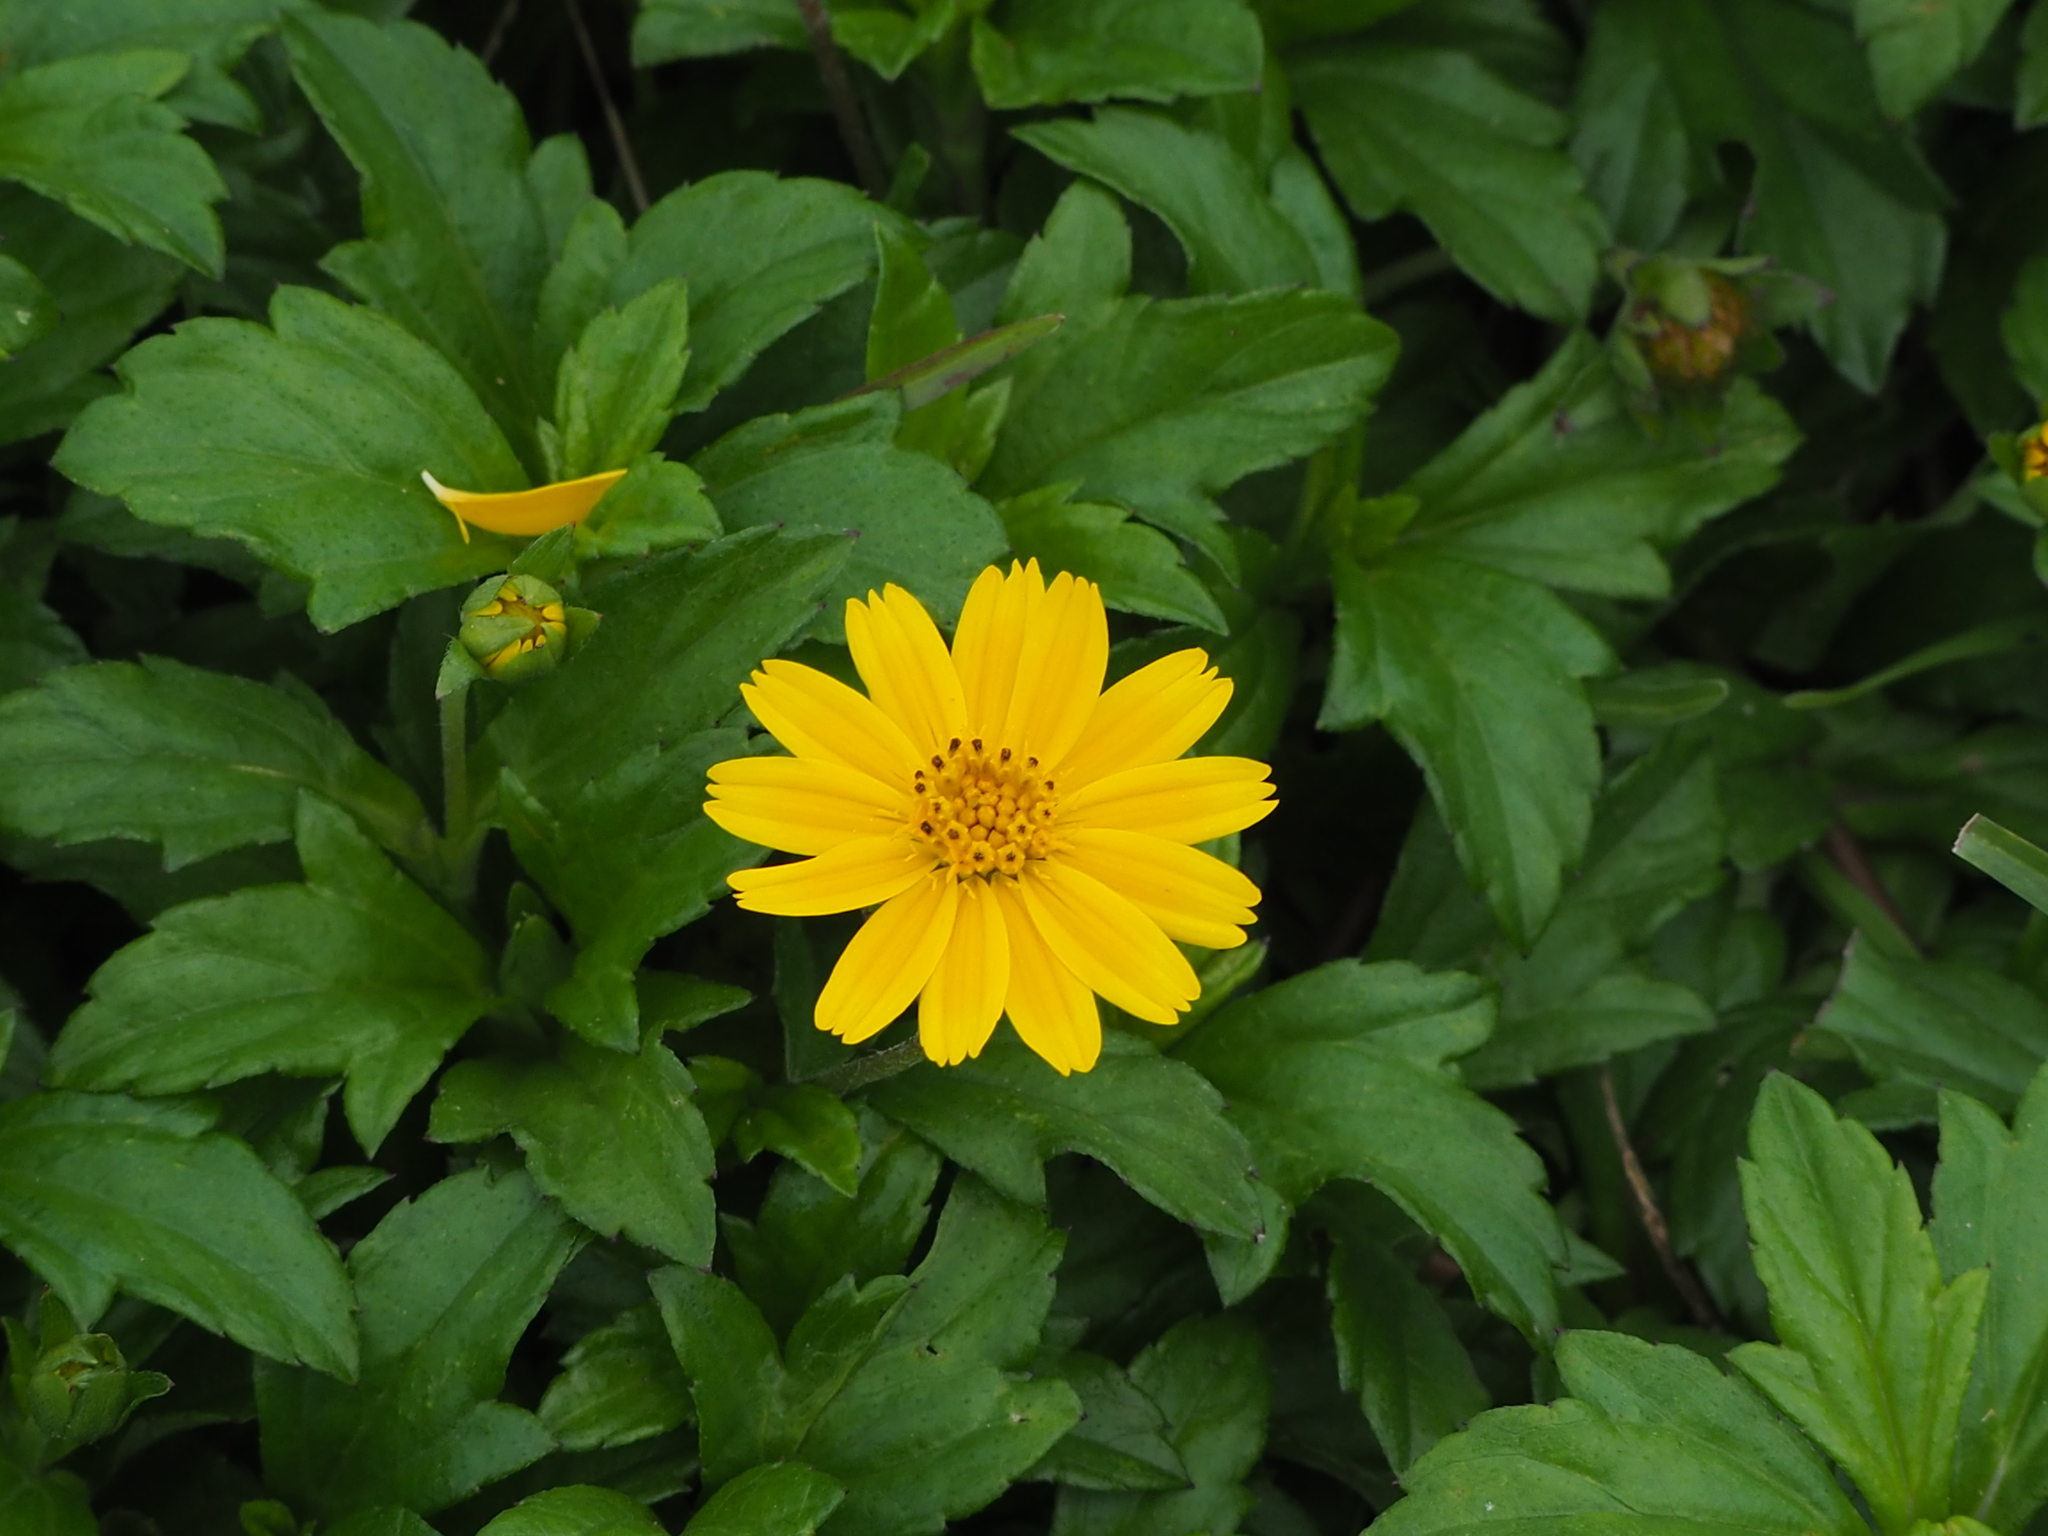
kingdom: Plantae
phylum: Tracheophyta
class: Magnoliopsida
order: Asterales
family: Asteraceae
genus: Sphagneticola
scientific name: Sphagneticola trilobata
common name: Bay biscayne creeping-oxeye
